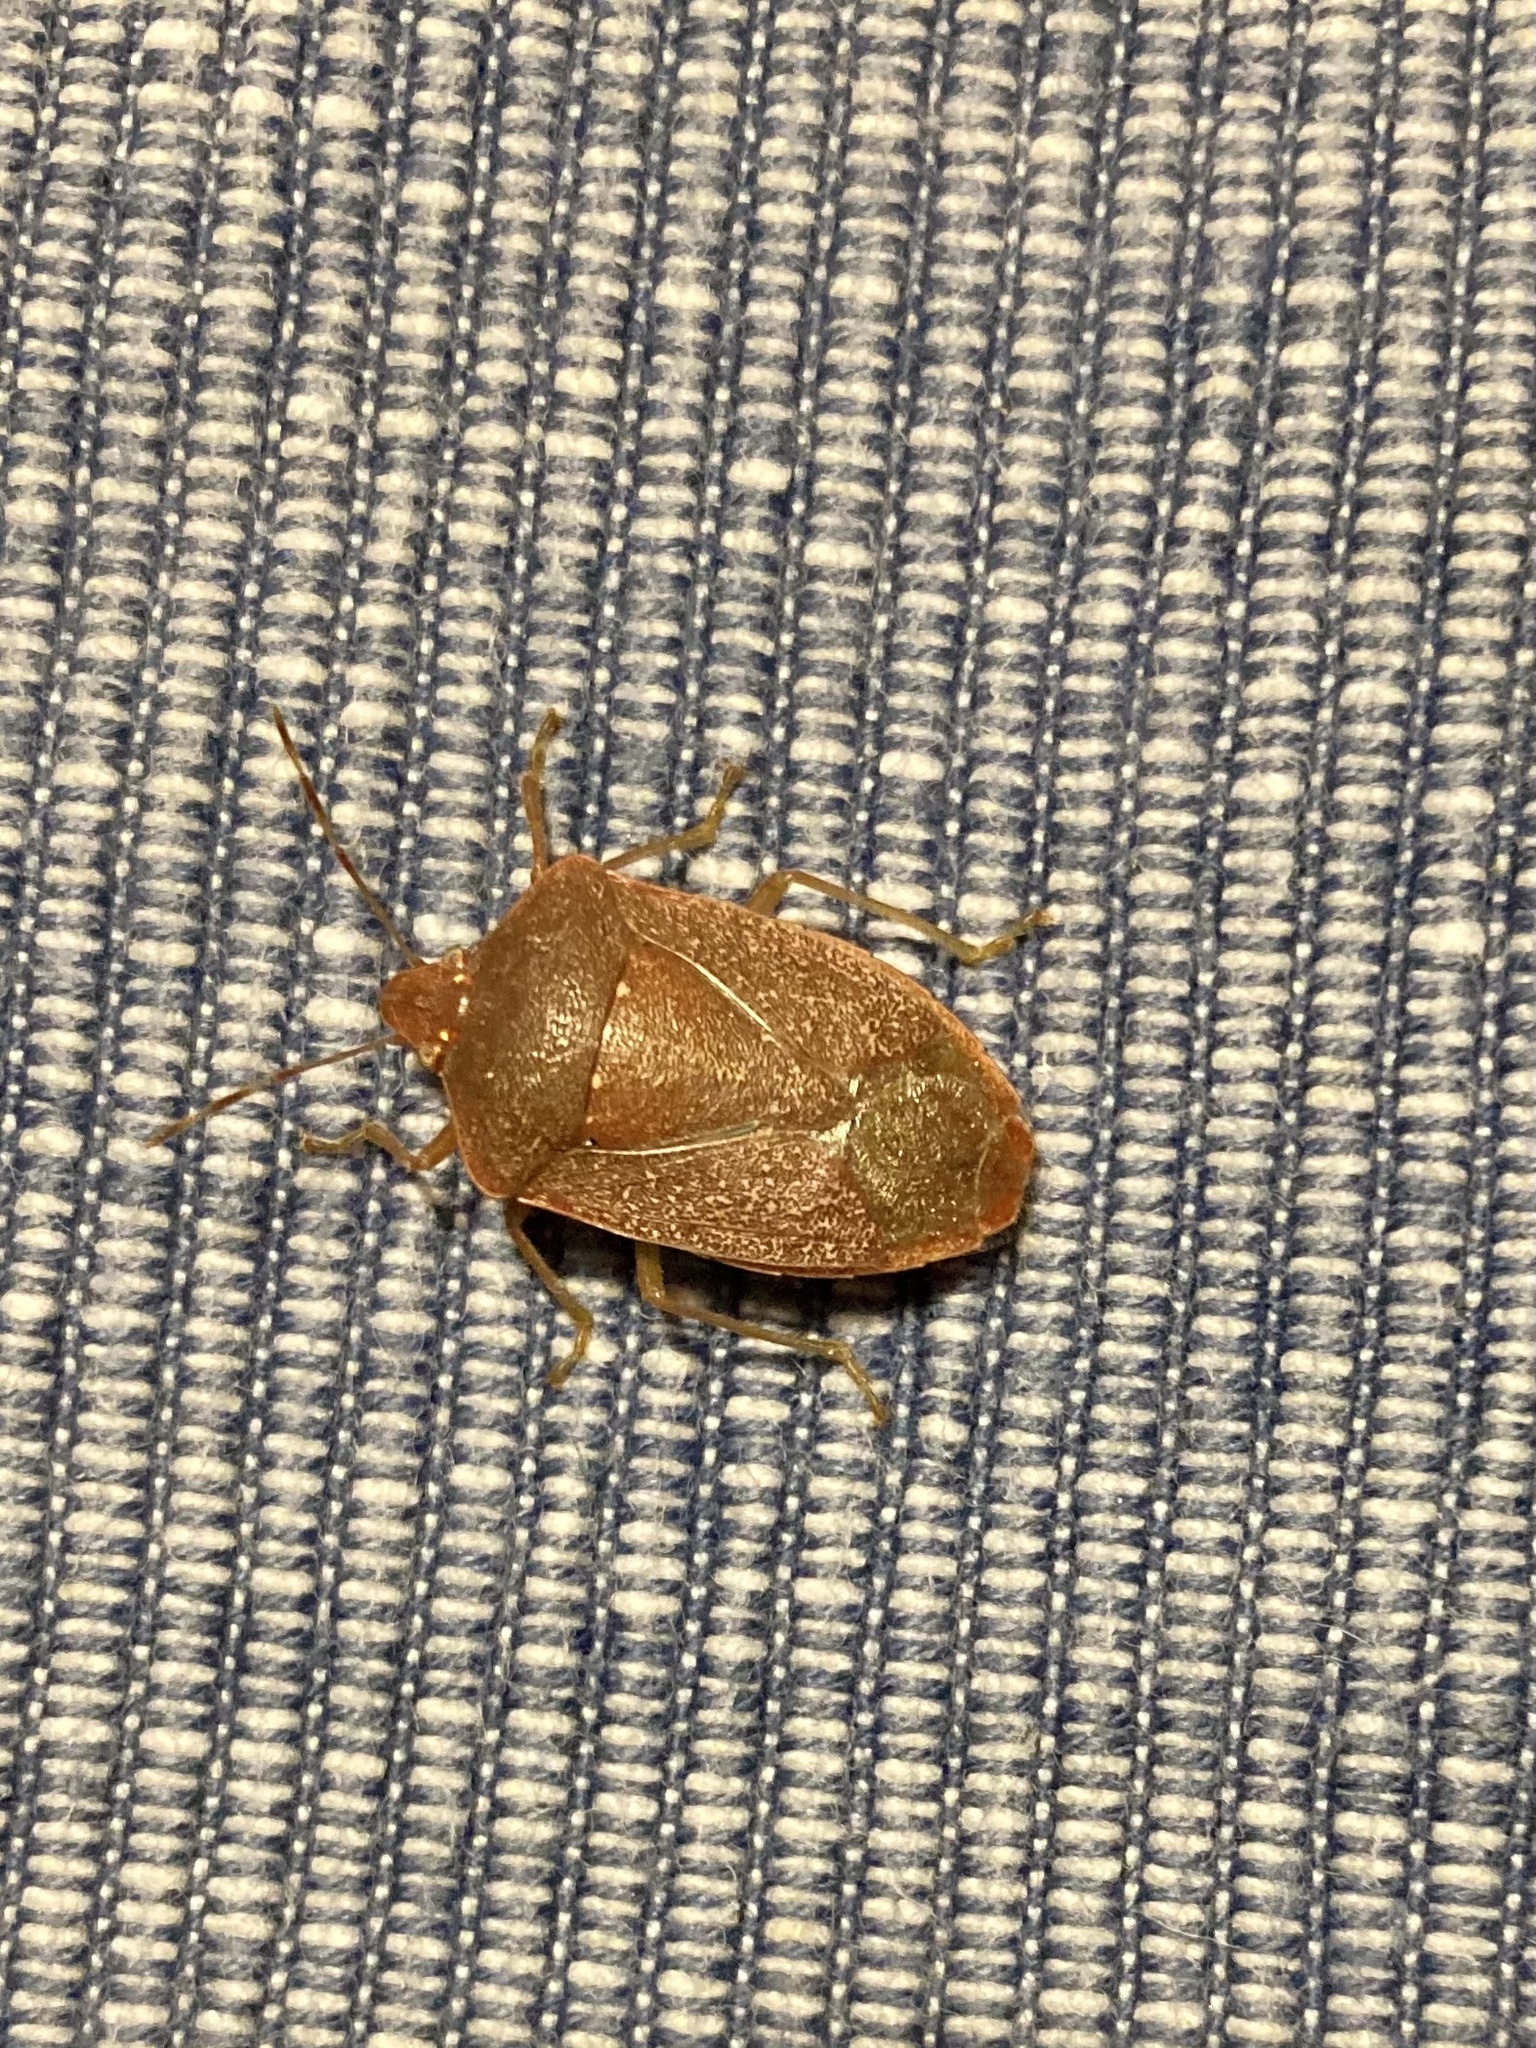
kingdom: Animalia
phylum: Arthropoda
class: Insecta
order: Hemiptera
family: Pentatomidae
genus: Nezara
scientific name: Nezara viridula
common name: Southern green stink bug
